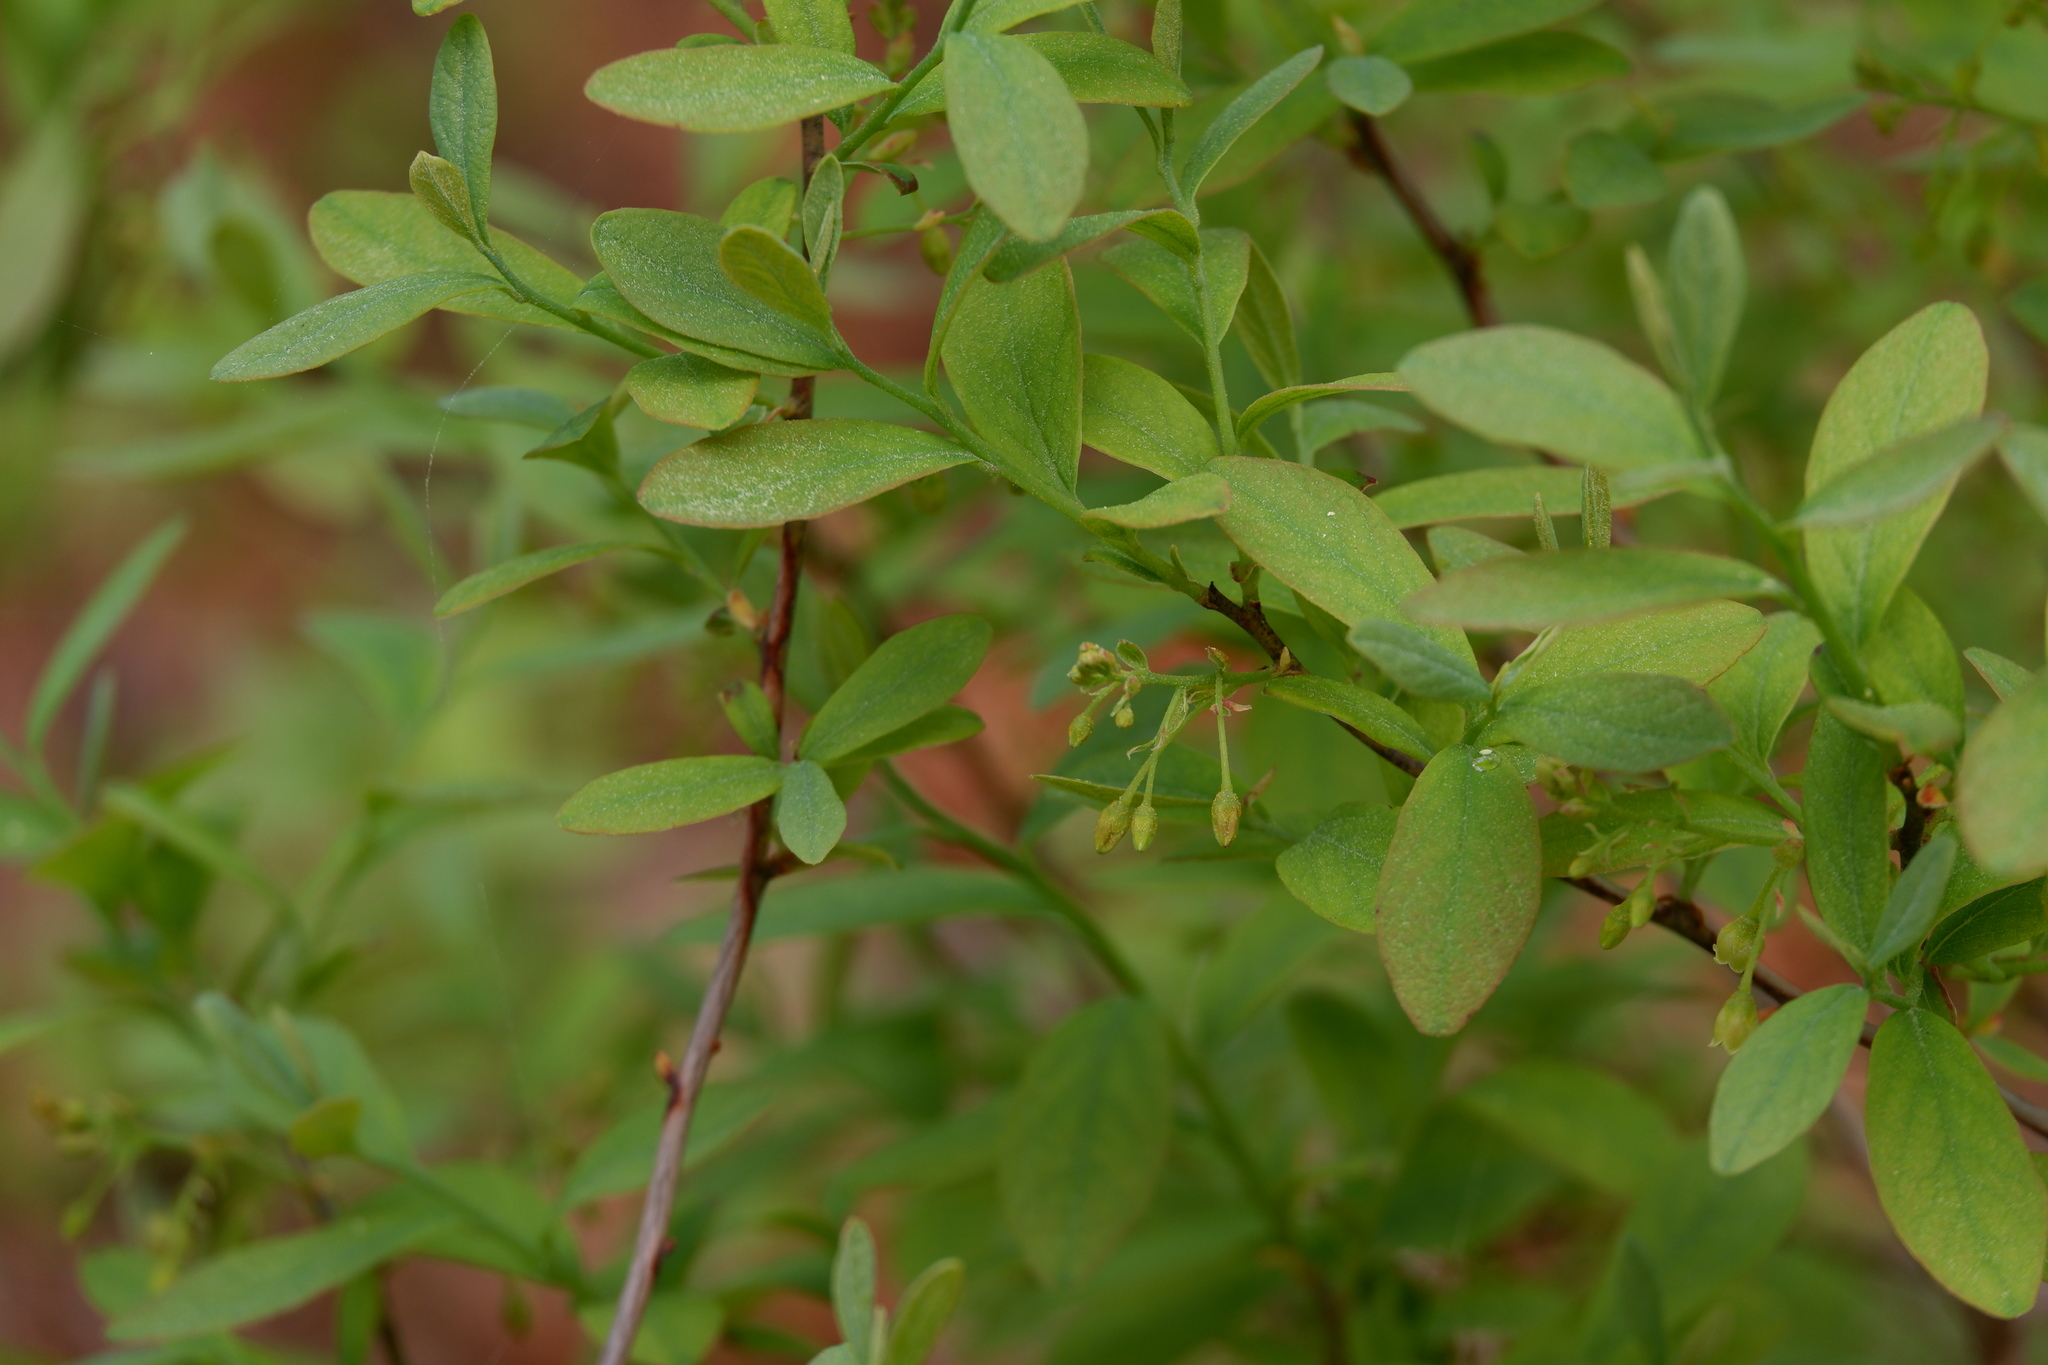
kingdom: Plantae
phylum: Tracheophyta
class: Magnoliopsida
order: Ericales
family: Ericaceae
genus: Gaylussacia
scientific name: Gaylussacia frondosa
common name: Dangleberry
